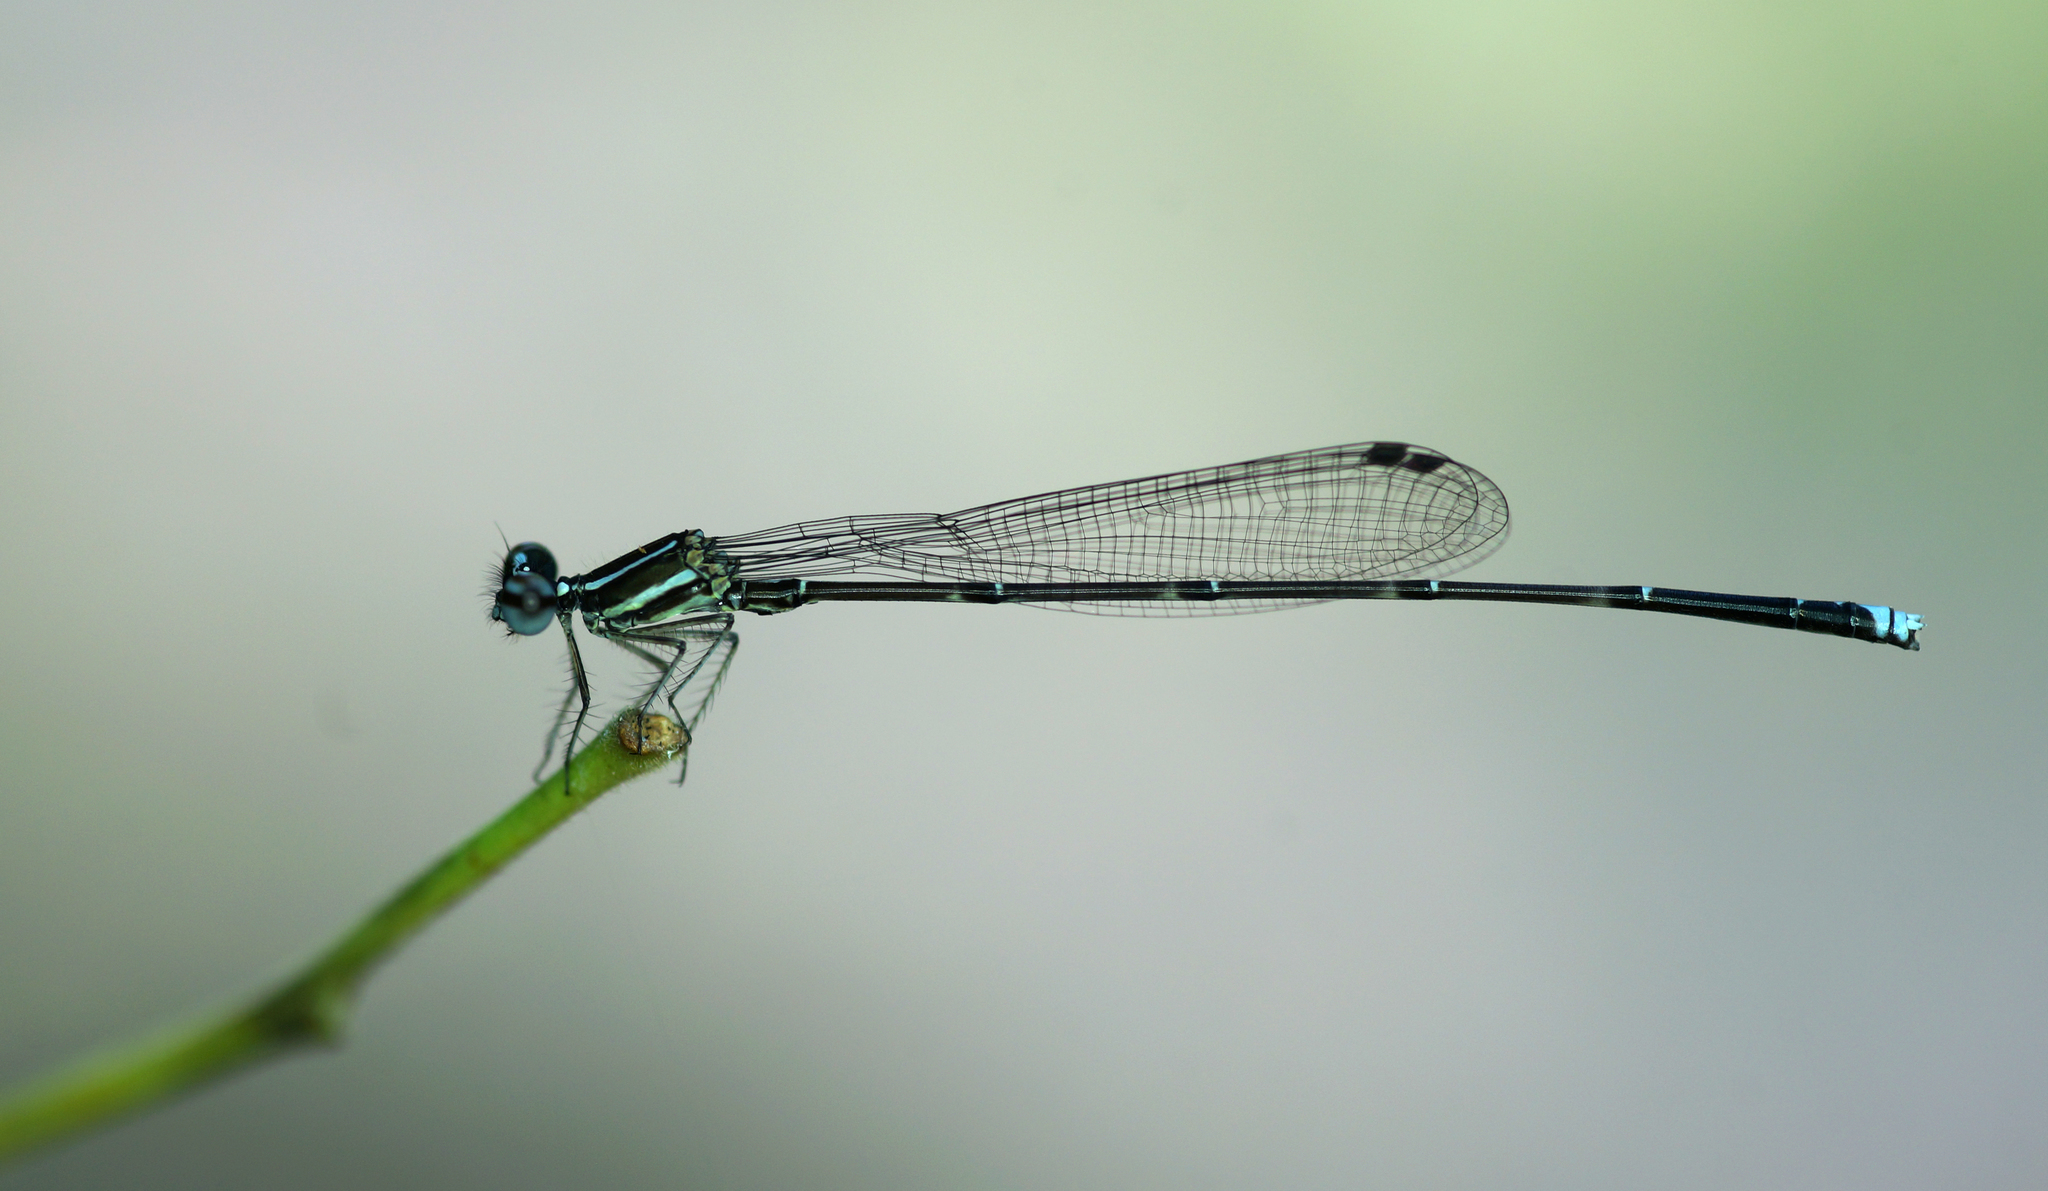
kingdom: Animalia
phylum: Arthropoda
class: Insecta
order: Odonata
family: Platycnemididae
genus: Prodasineura
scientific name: Prodasineura coerulescens
